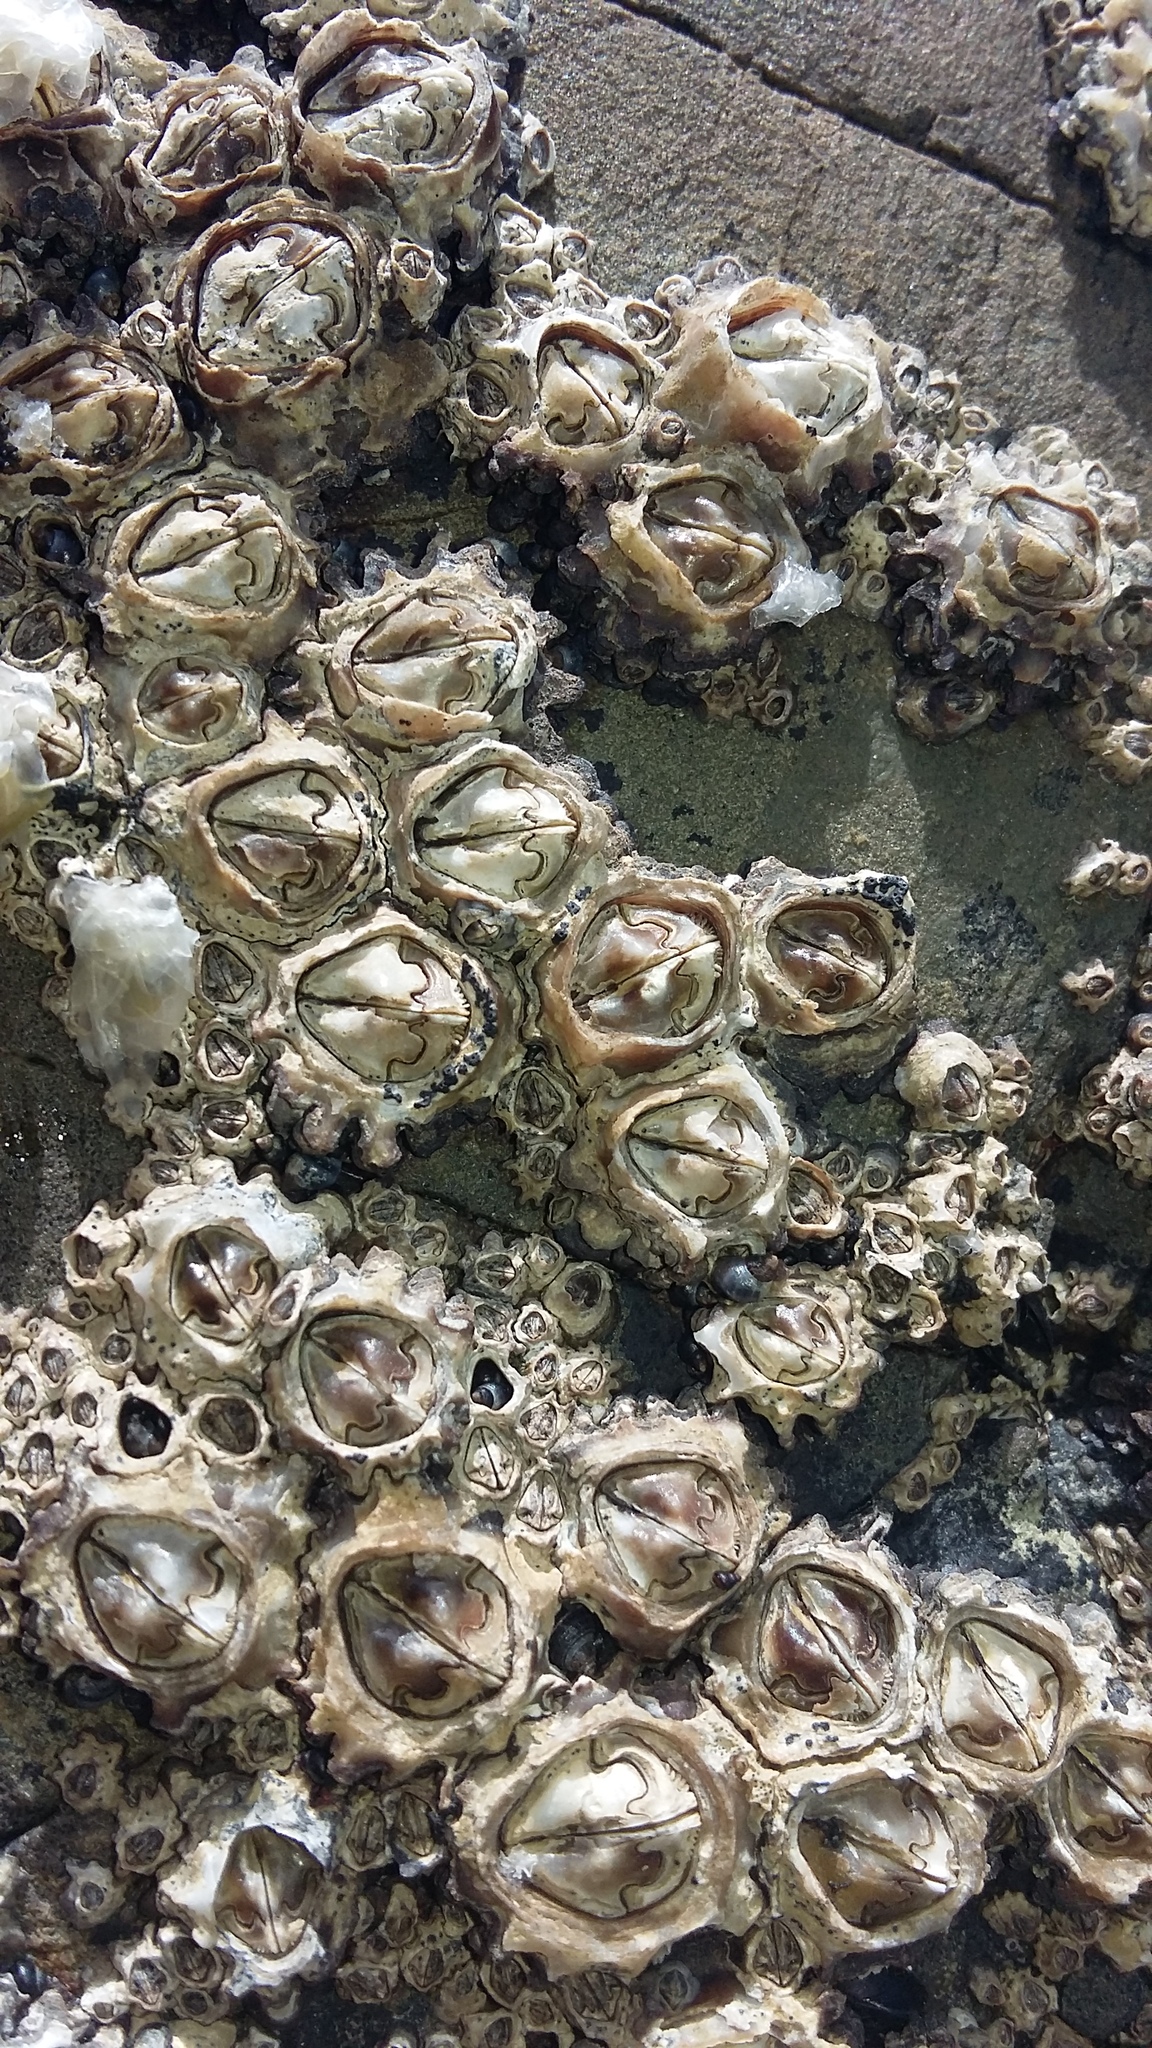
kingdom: Animalia
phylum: Arthropoda
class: Maxillopoda
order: Sessilia
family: Chthamalidae
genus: Chamaesipho
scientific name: Chamaesipho brunnea
